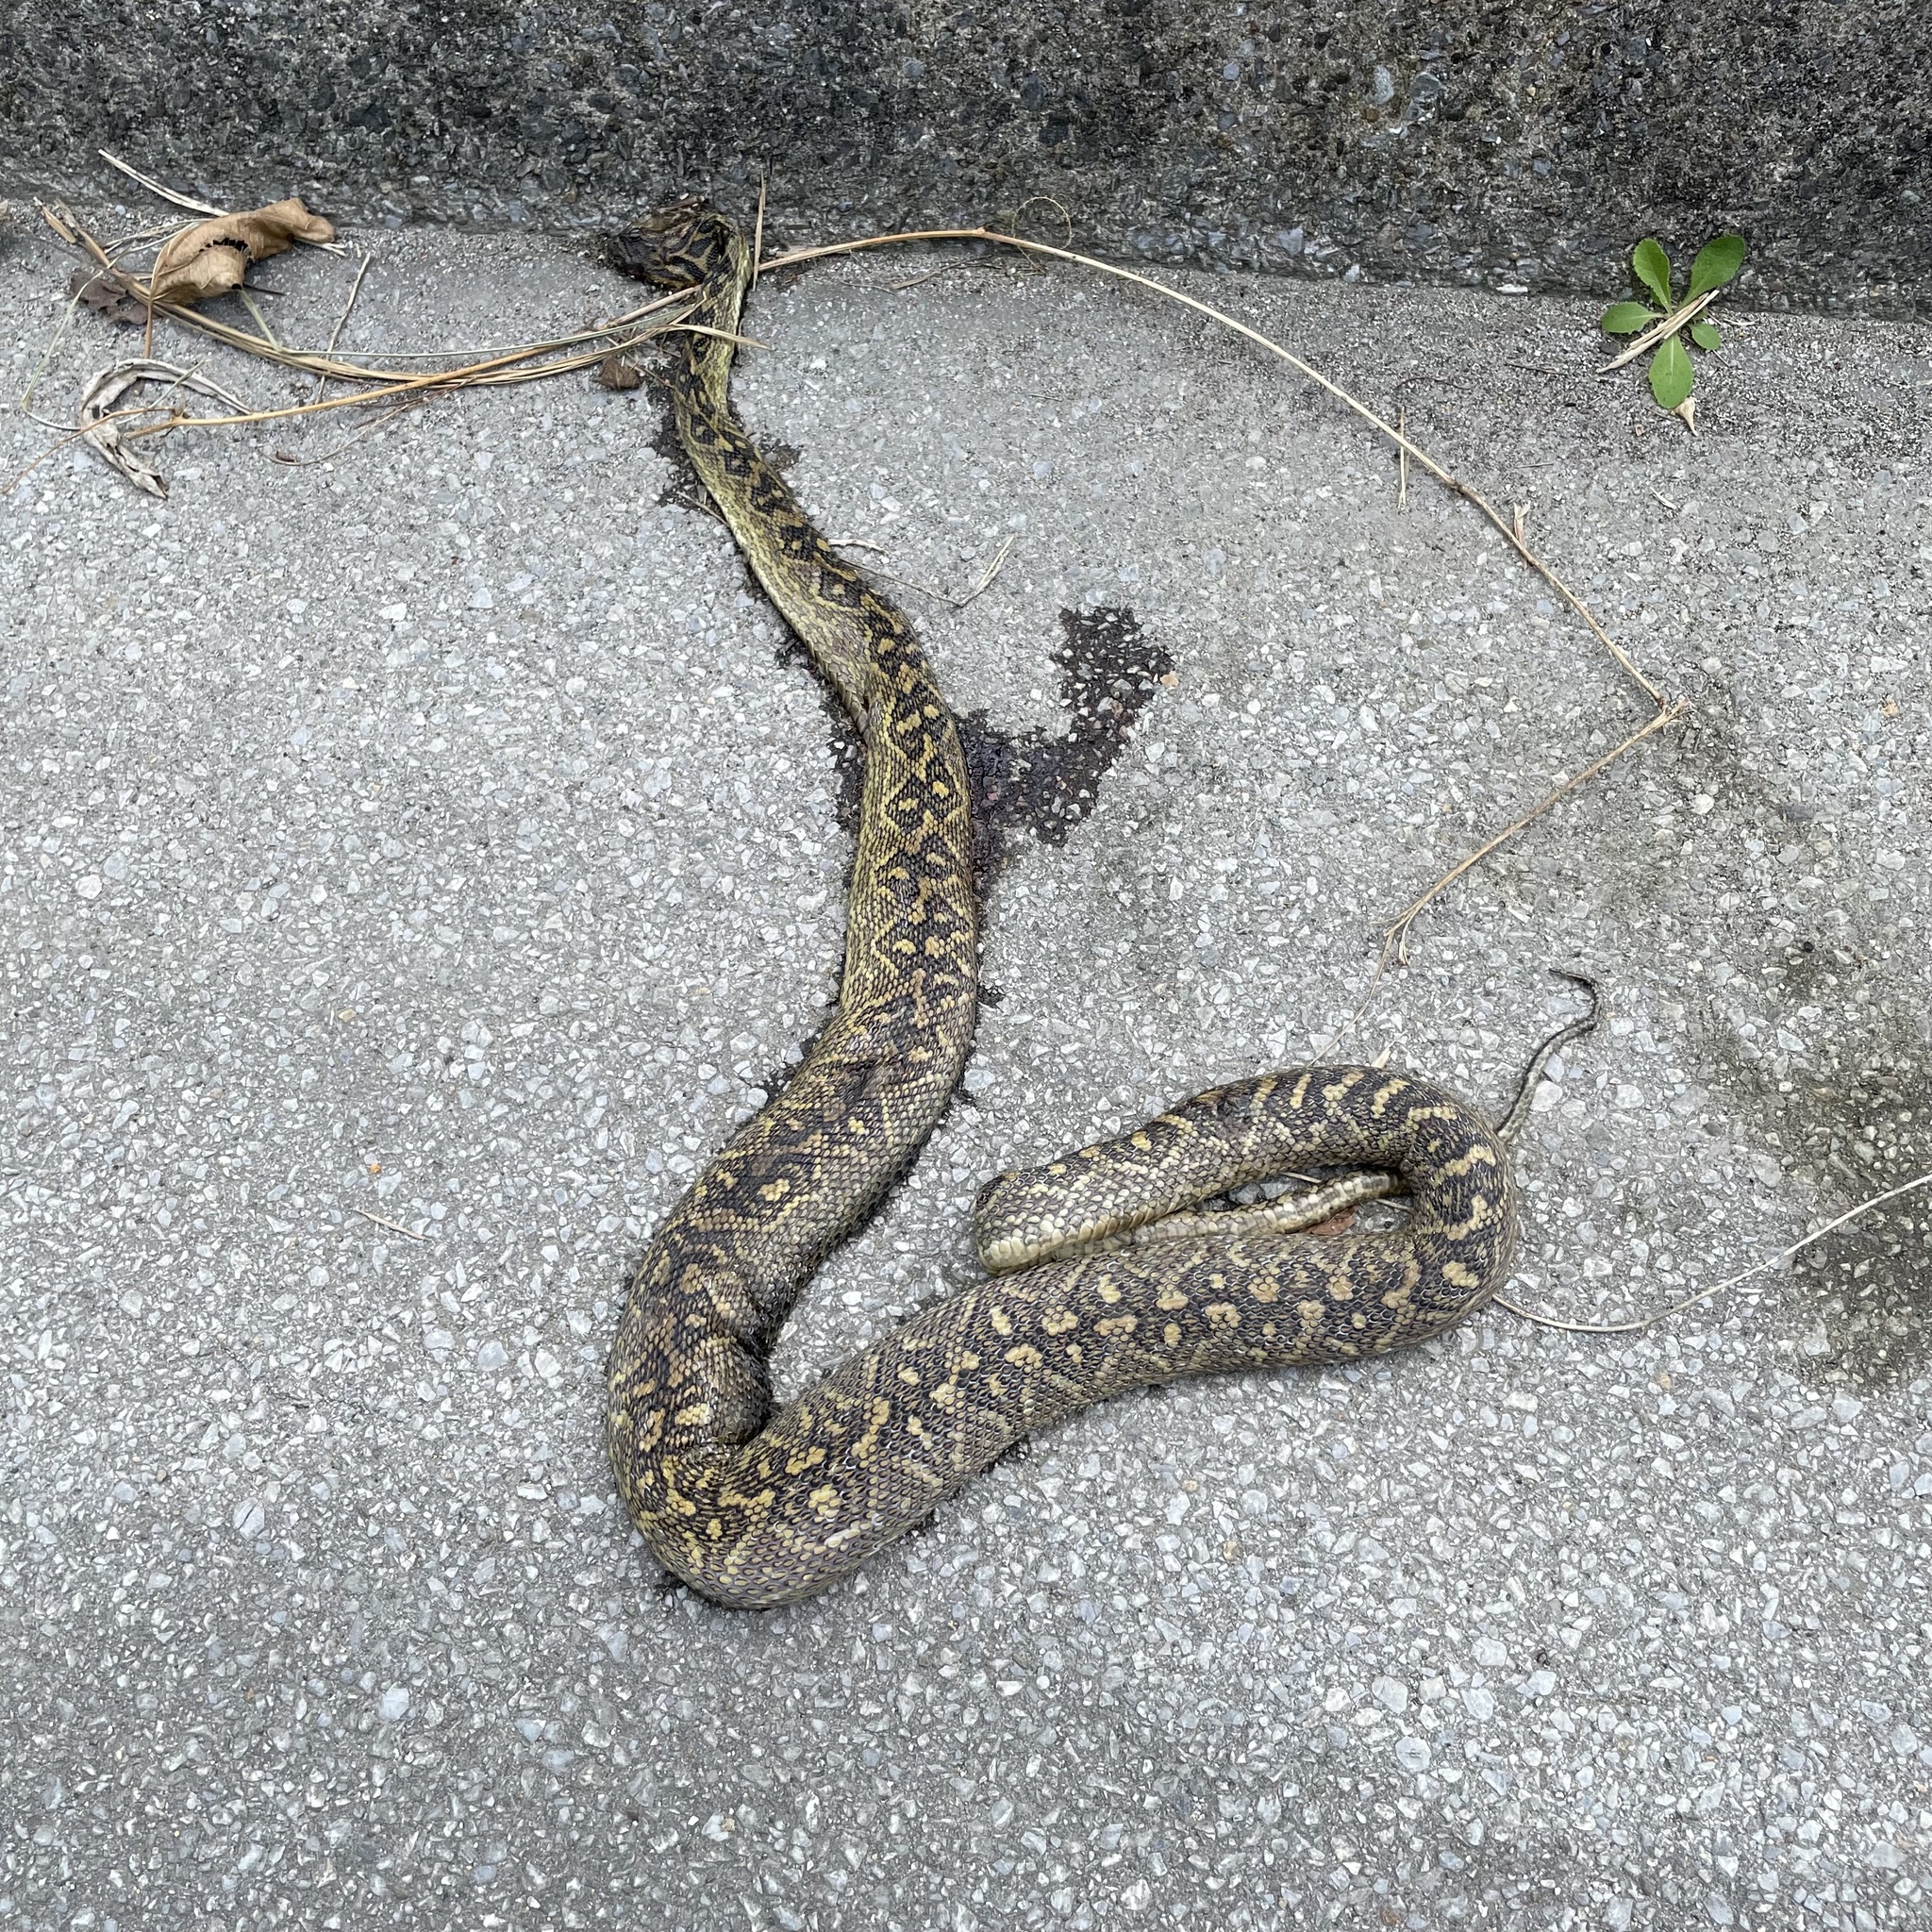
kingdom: Animalia
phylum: Chordata
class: Squamata
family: Viperidae
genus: Protobothrops
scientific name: Protobothrops flavoviridis
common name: Habu
